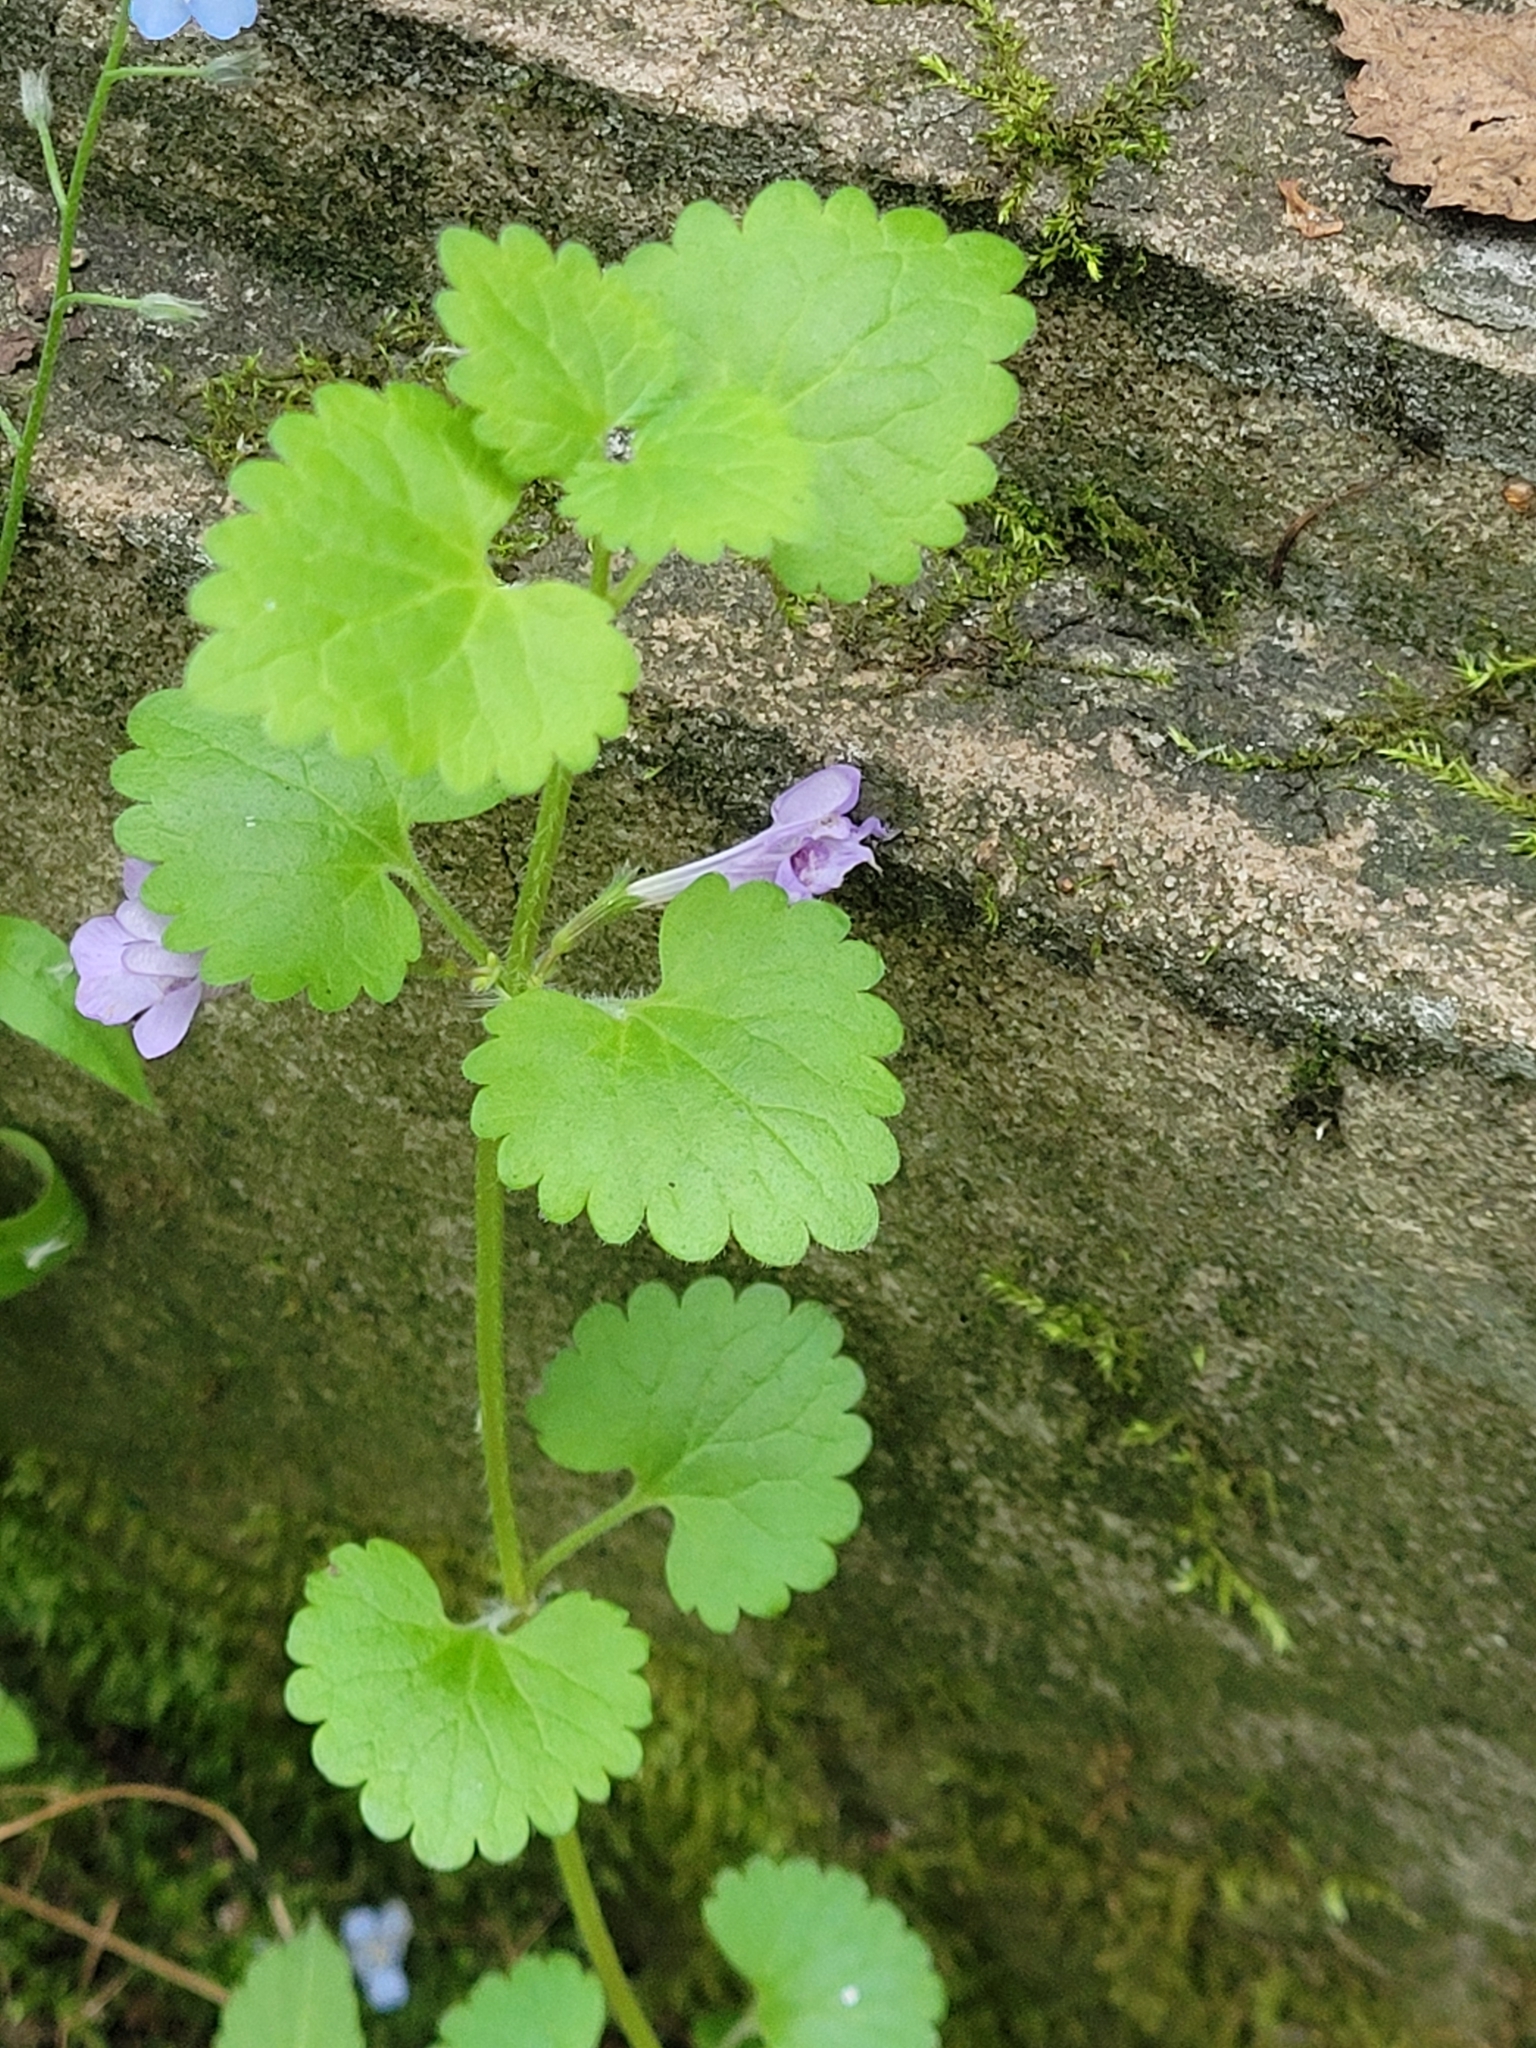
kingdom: Plantae
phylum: Tracheophyta
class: Magnoliopsida
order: Lamiales
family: Lamiaceae
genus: Glechoma
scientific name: Glechoma hederacea
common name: Ground ivy
